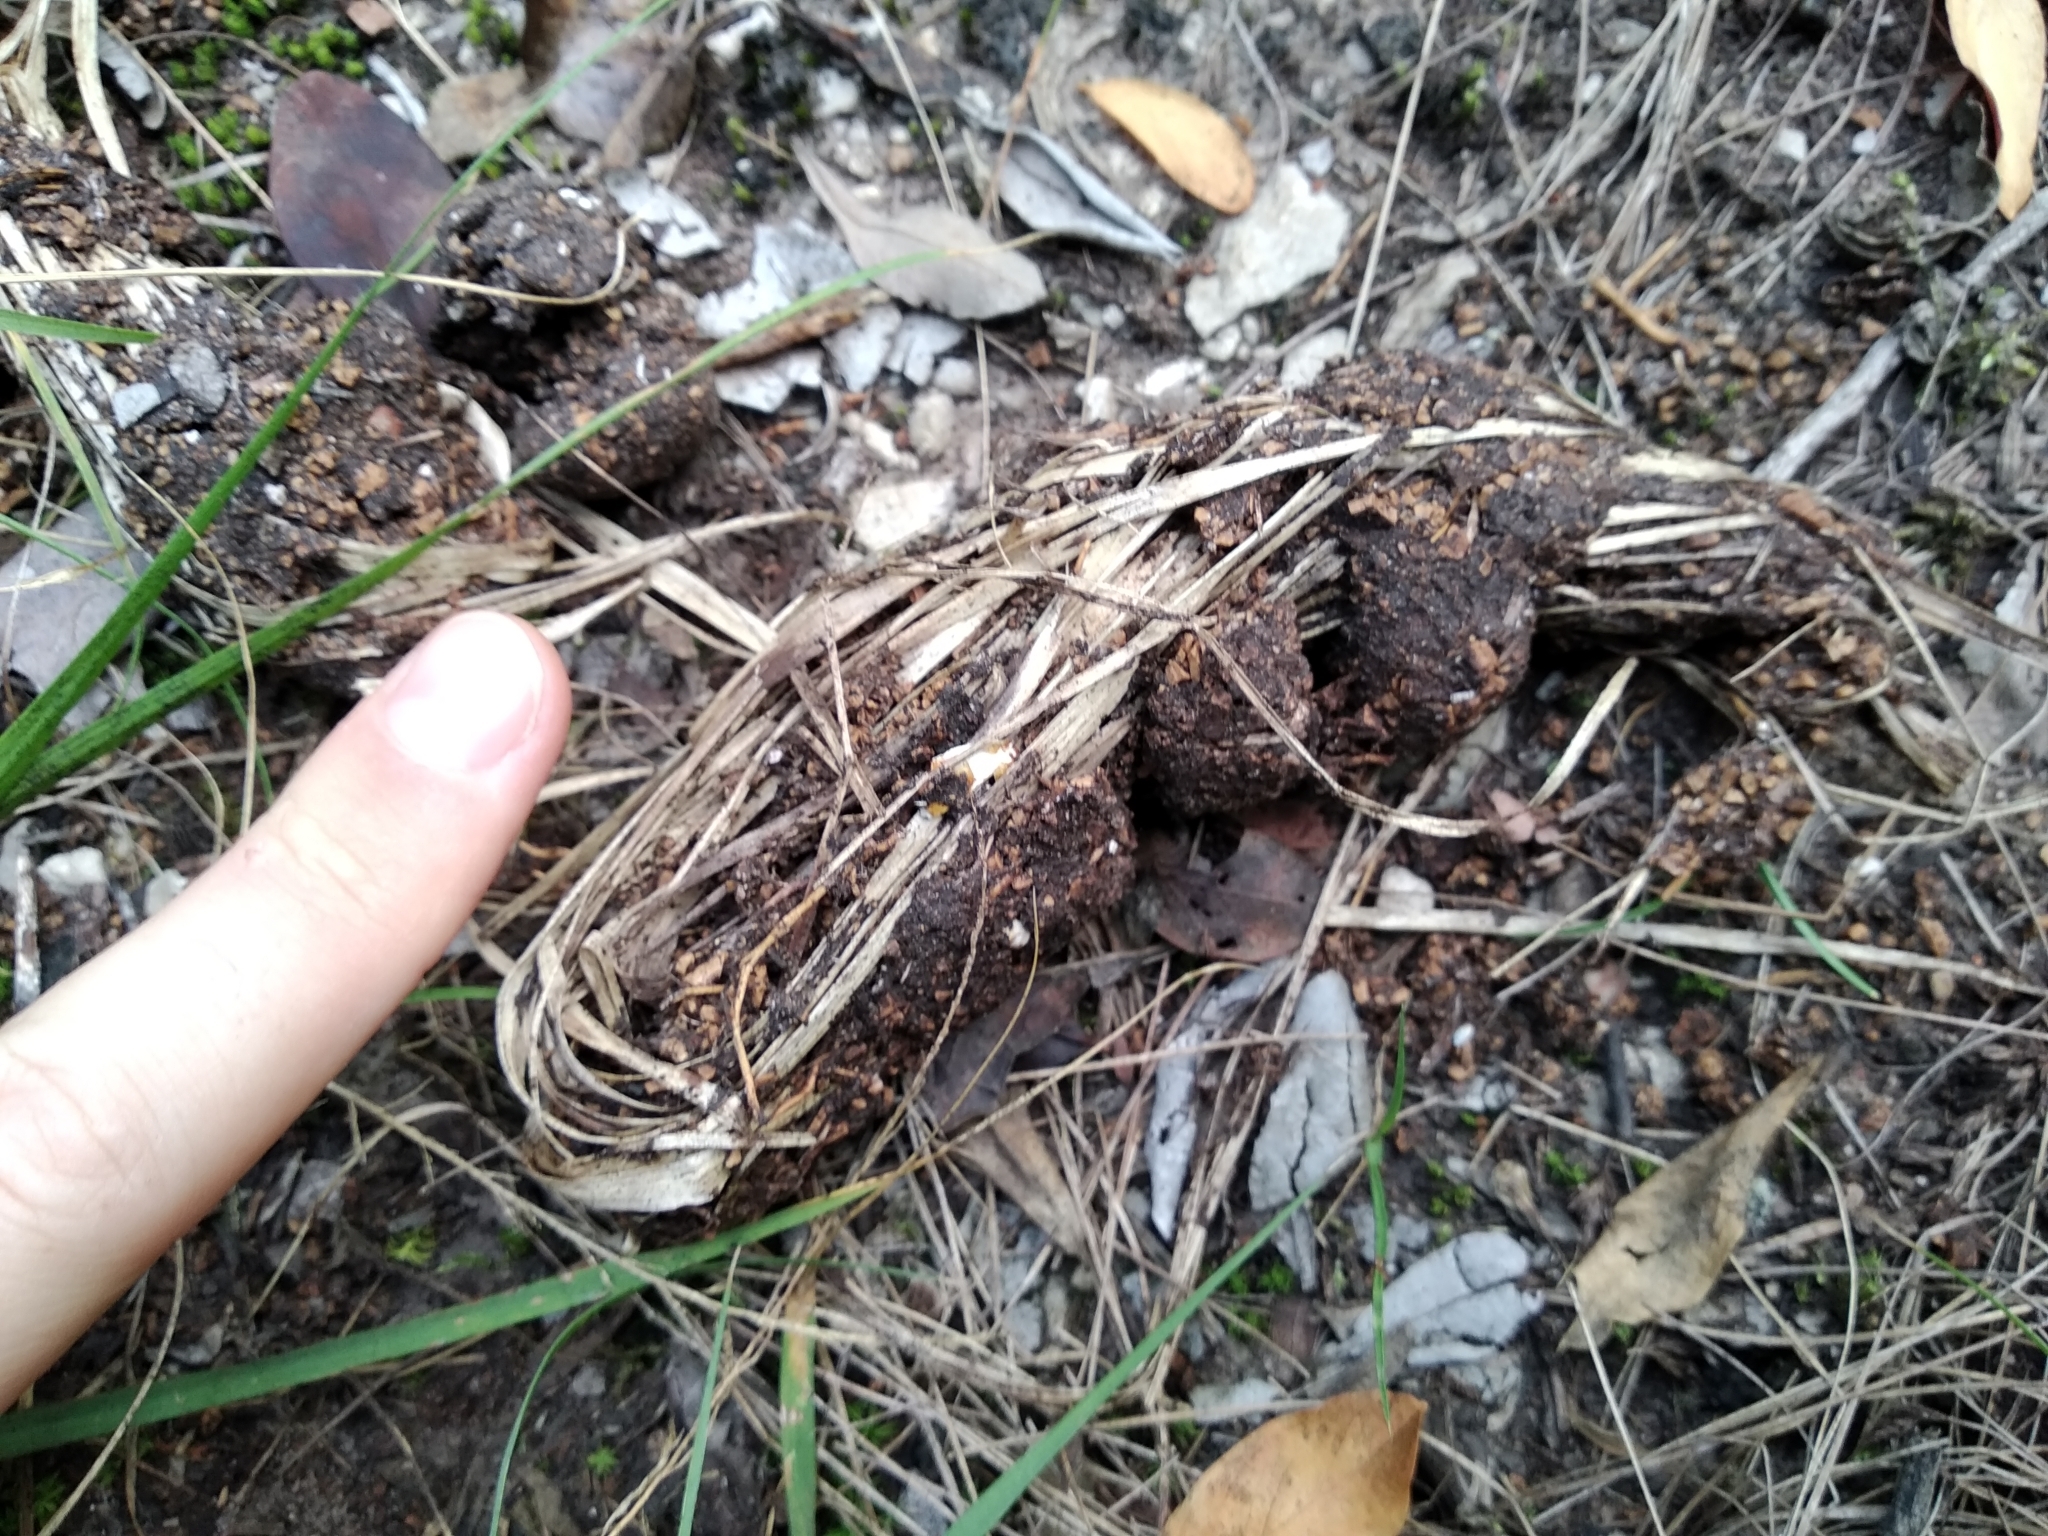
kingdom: Animalia
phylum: Chordata
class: Mammalia
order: Rodentia
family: Hystricidae
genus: Hystrix
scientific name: Hystrix africaeaustralis
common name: Cape porcupine
